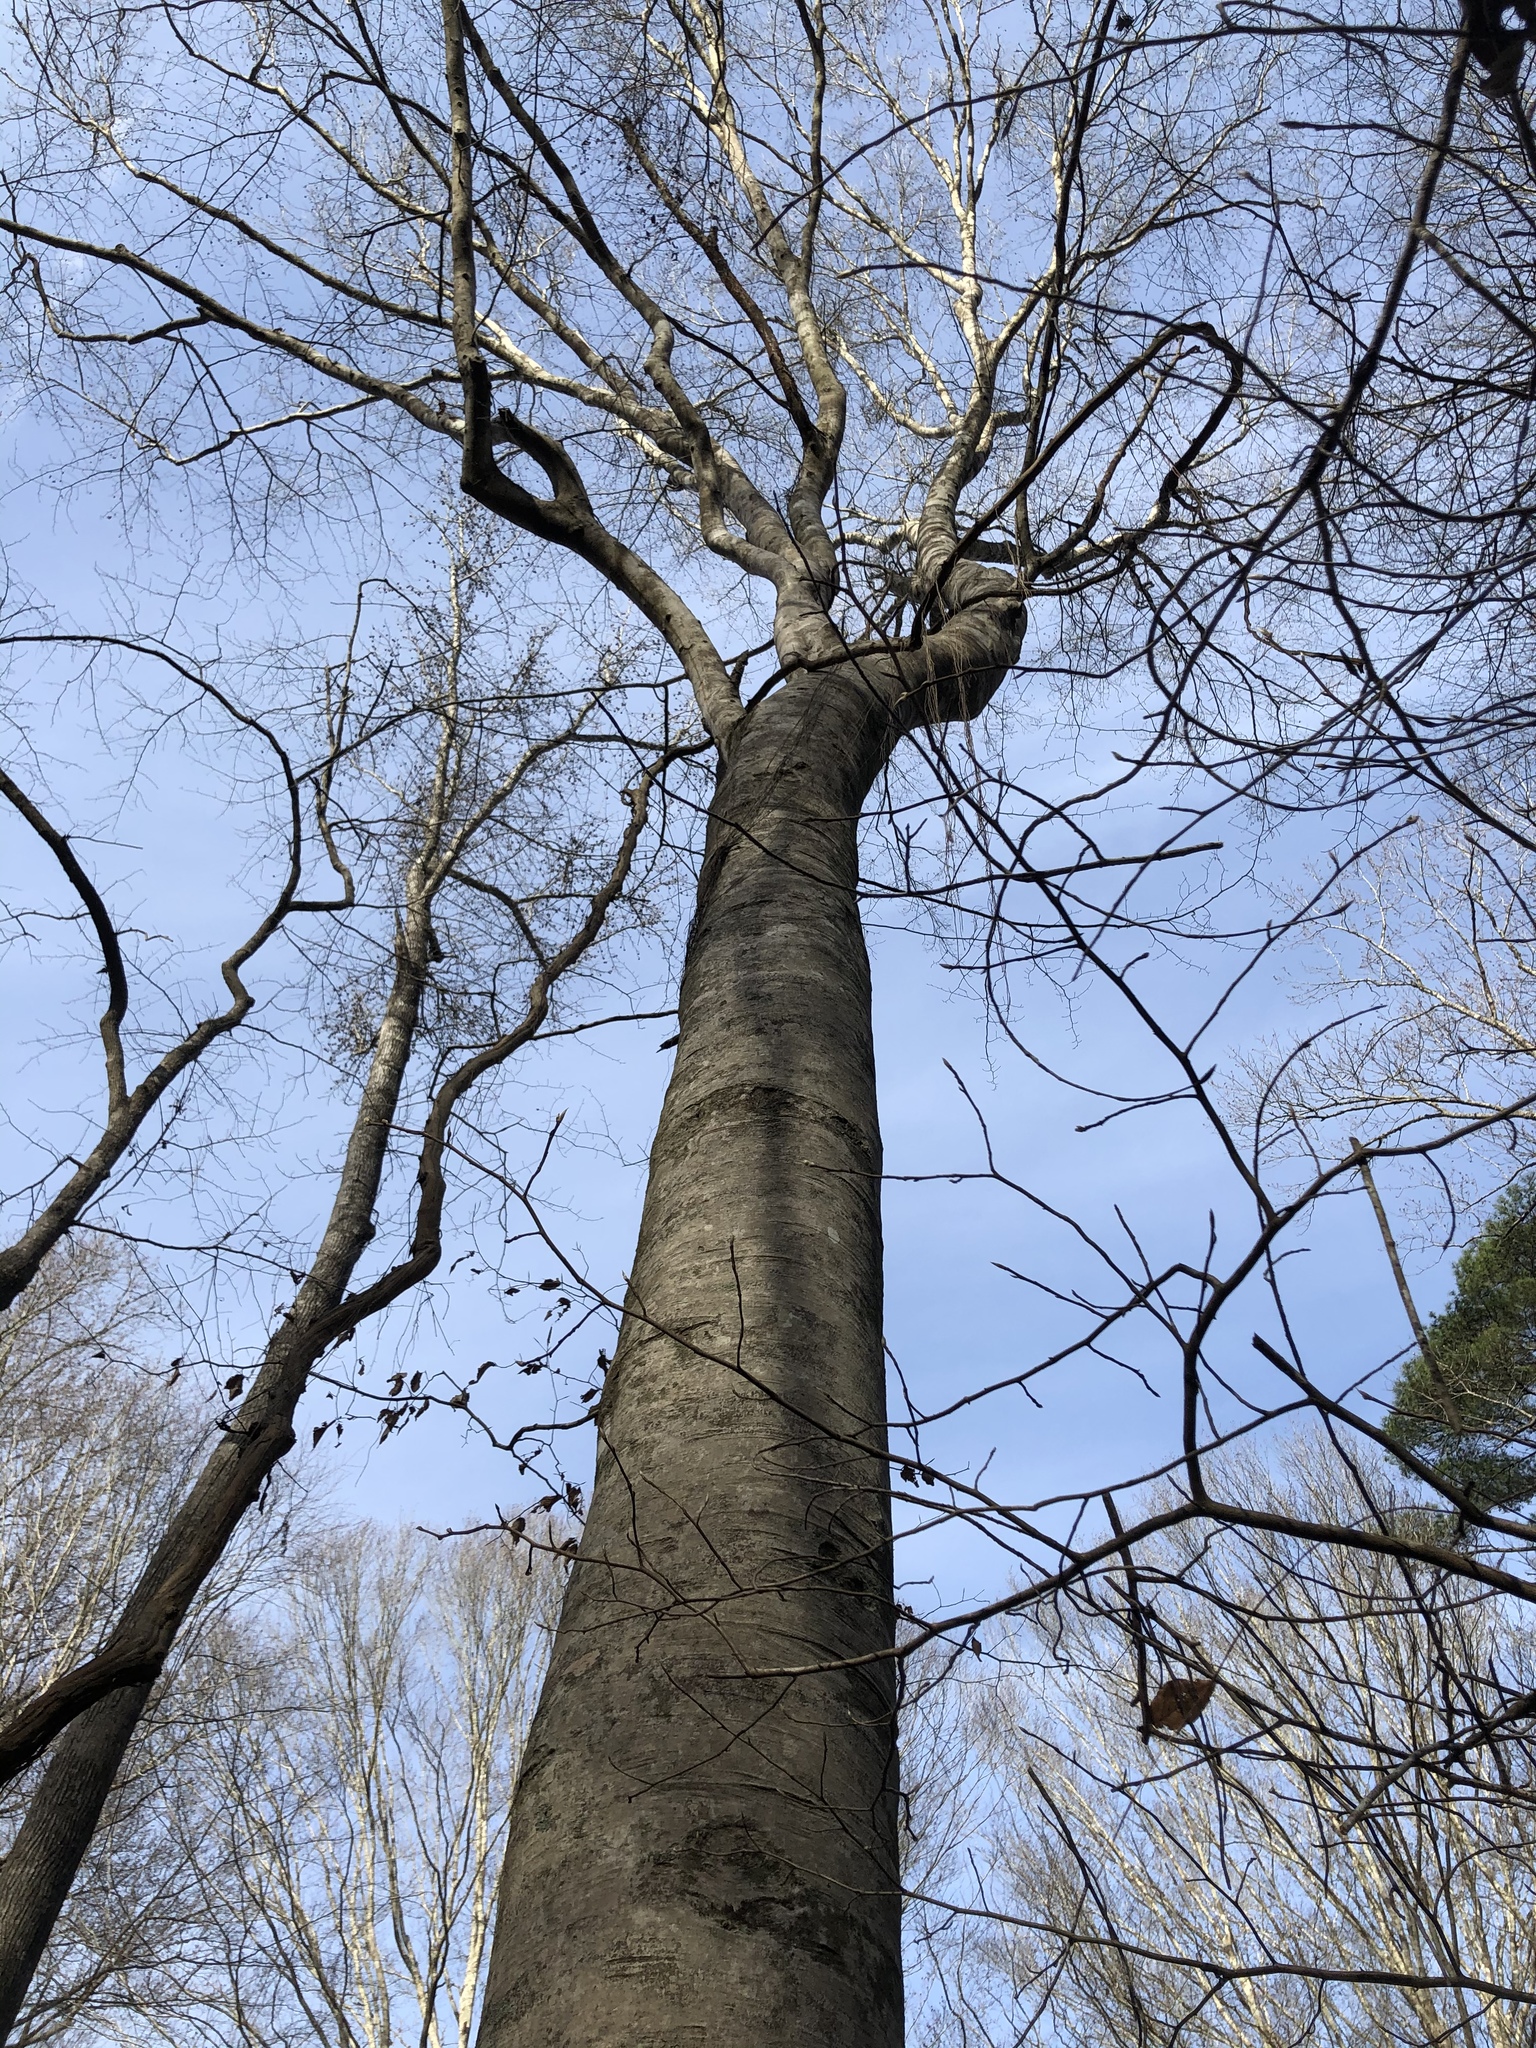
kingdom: Plantae
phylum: Tracheophyta
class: Magnoliopsida
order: Fagales
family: Fagaceae
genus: Fagus
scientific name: Fagus grandifolia
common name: American beech
